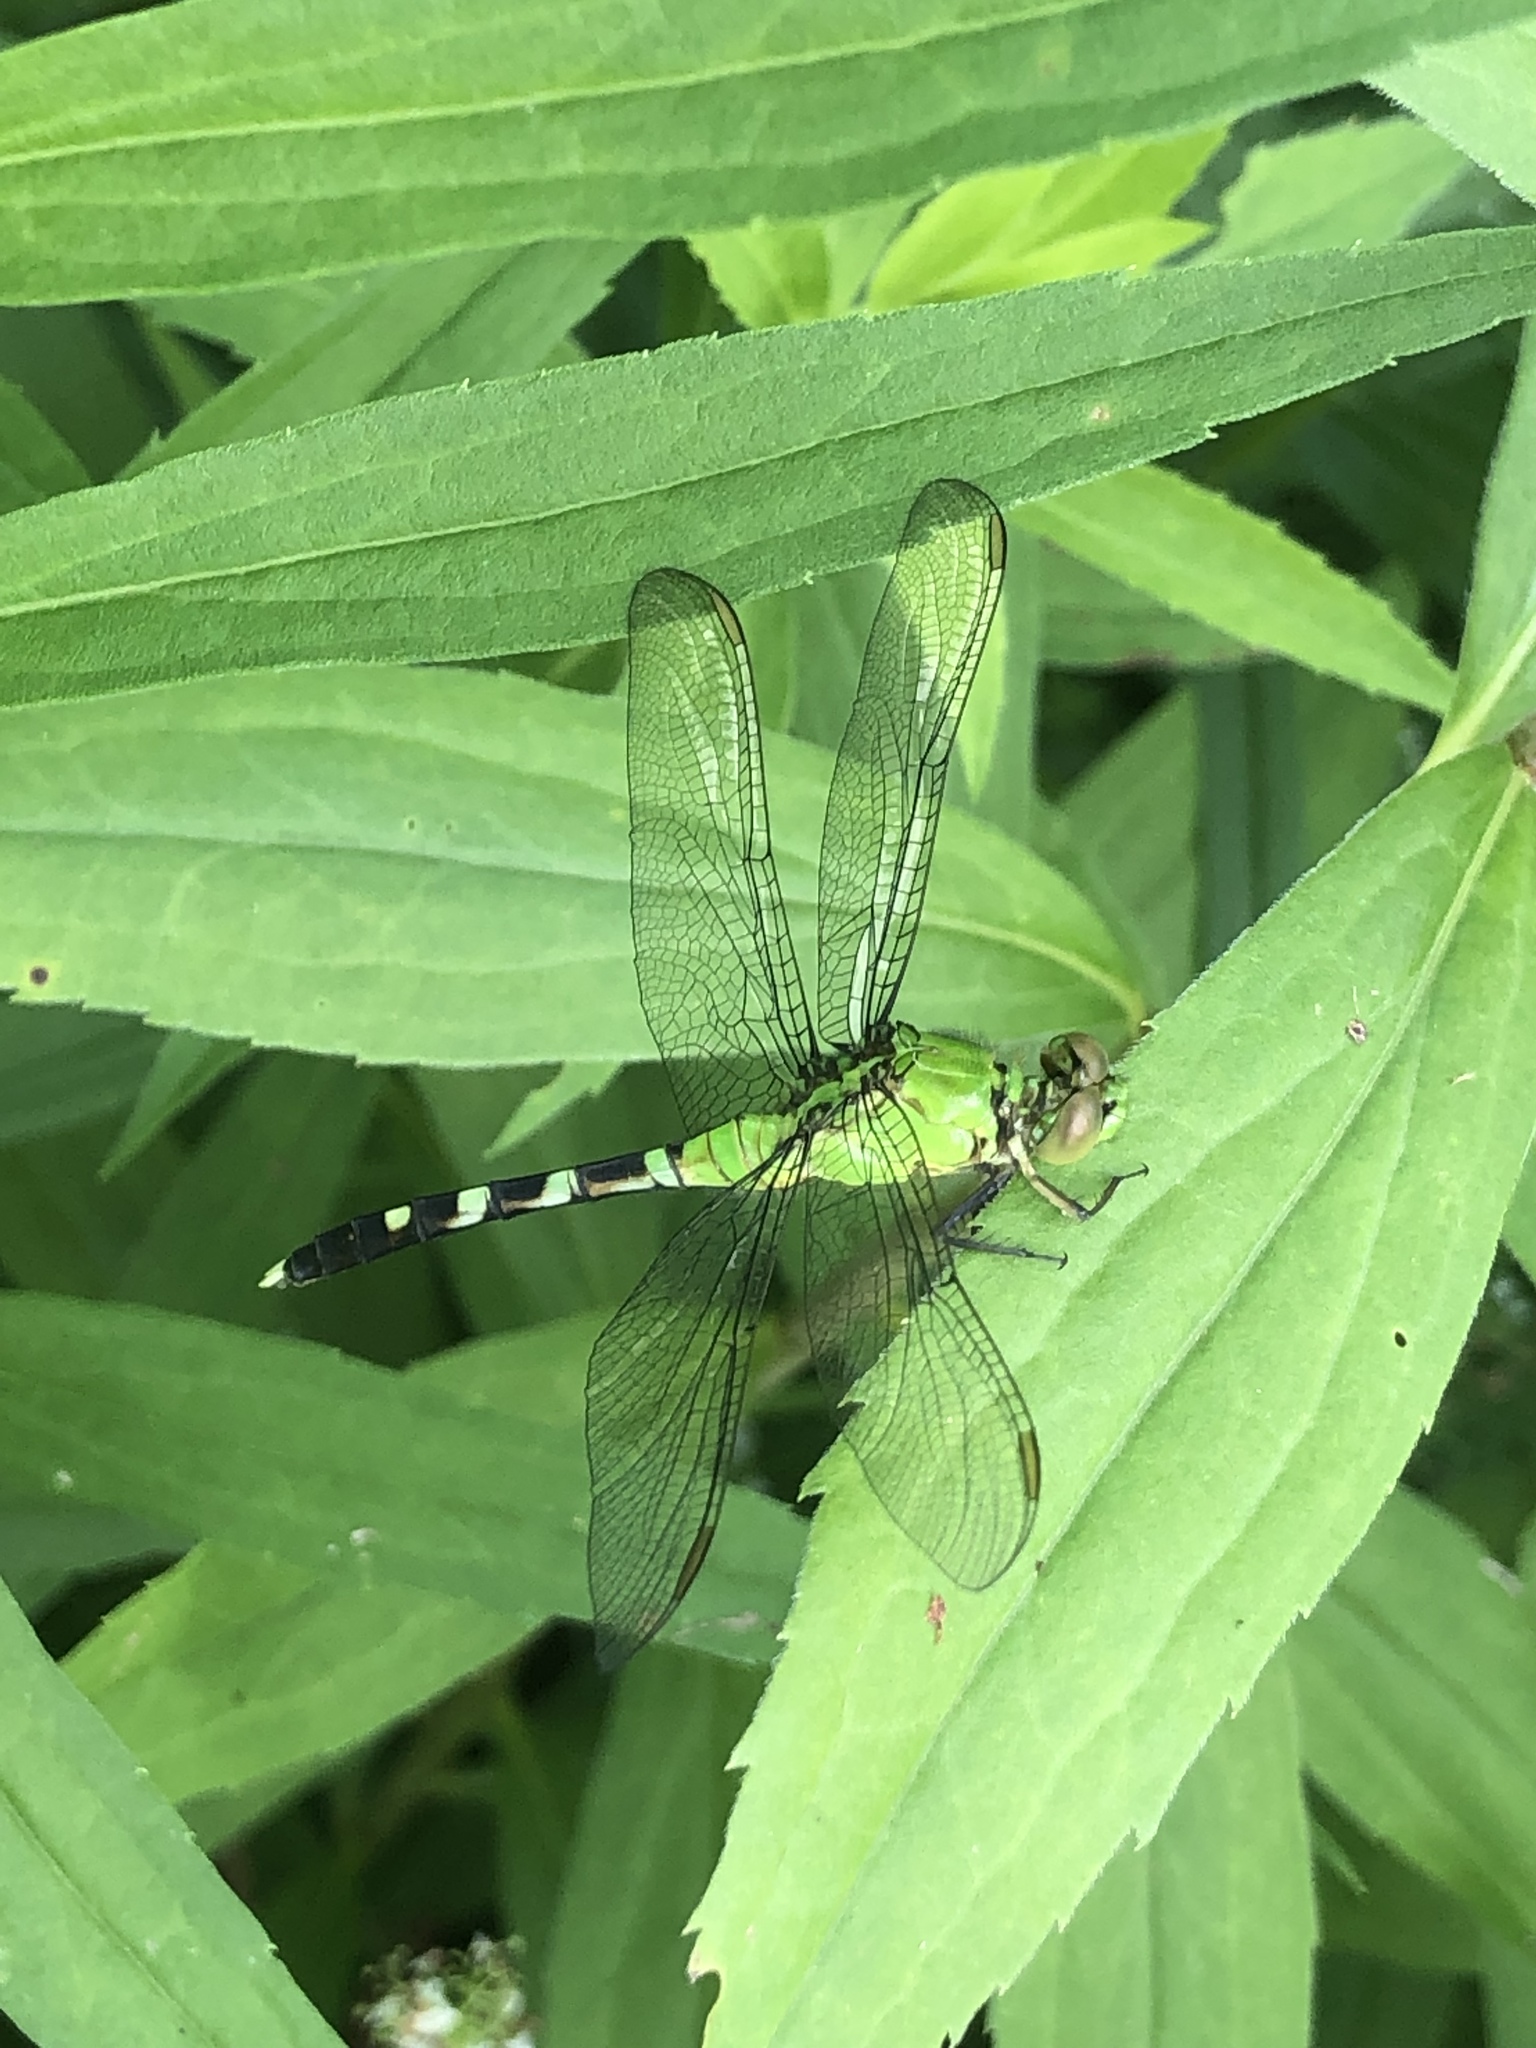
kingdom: Animalia
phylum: Arthropoda
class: Insecta
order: Odonata
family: Libellulidae
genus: Erythemis
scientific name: Erythemis simplicicollis
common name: Eastern pondhawk
